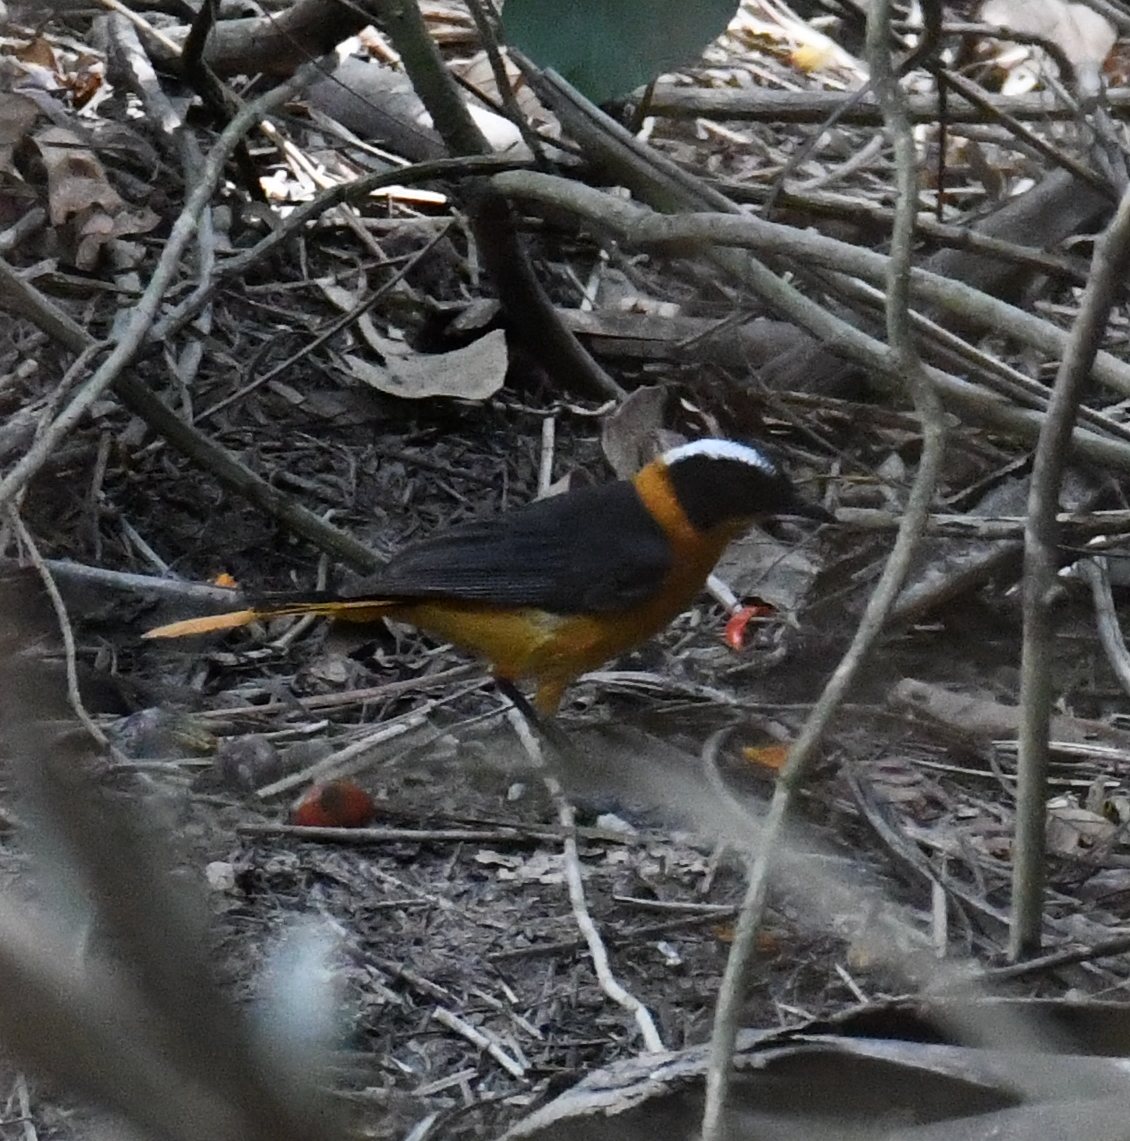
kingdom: Animalia
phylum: Chordata
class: Aves
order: Passeriformes
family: Muscicapidae
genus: Cossypha
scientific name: Cossypha niveicapilla
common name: Snowy-crowned robin-chat
